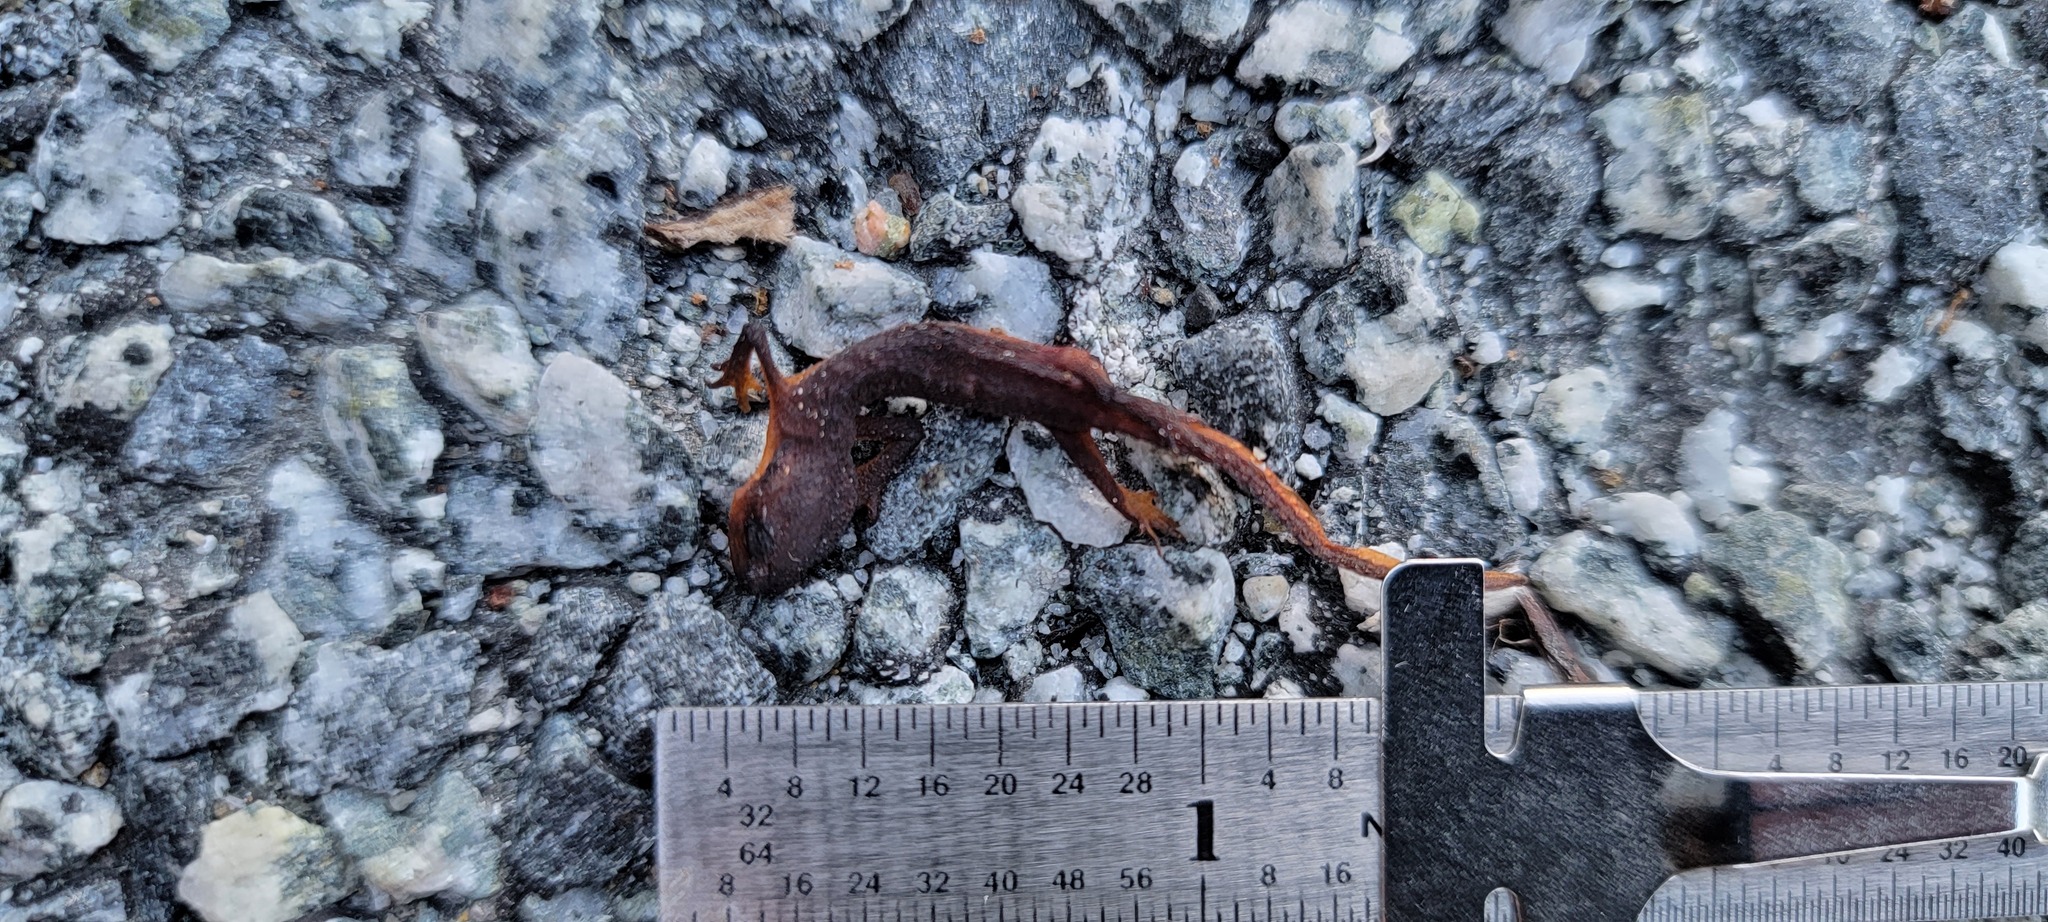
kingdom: Animalia
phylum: Chordata
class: Amphibia
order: Caudata
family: Salamandridae
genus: Taricha
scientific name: Taricha
